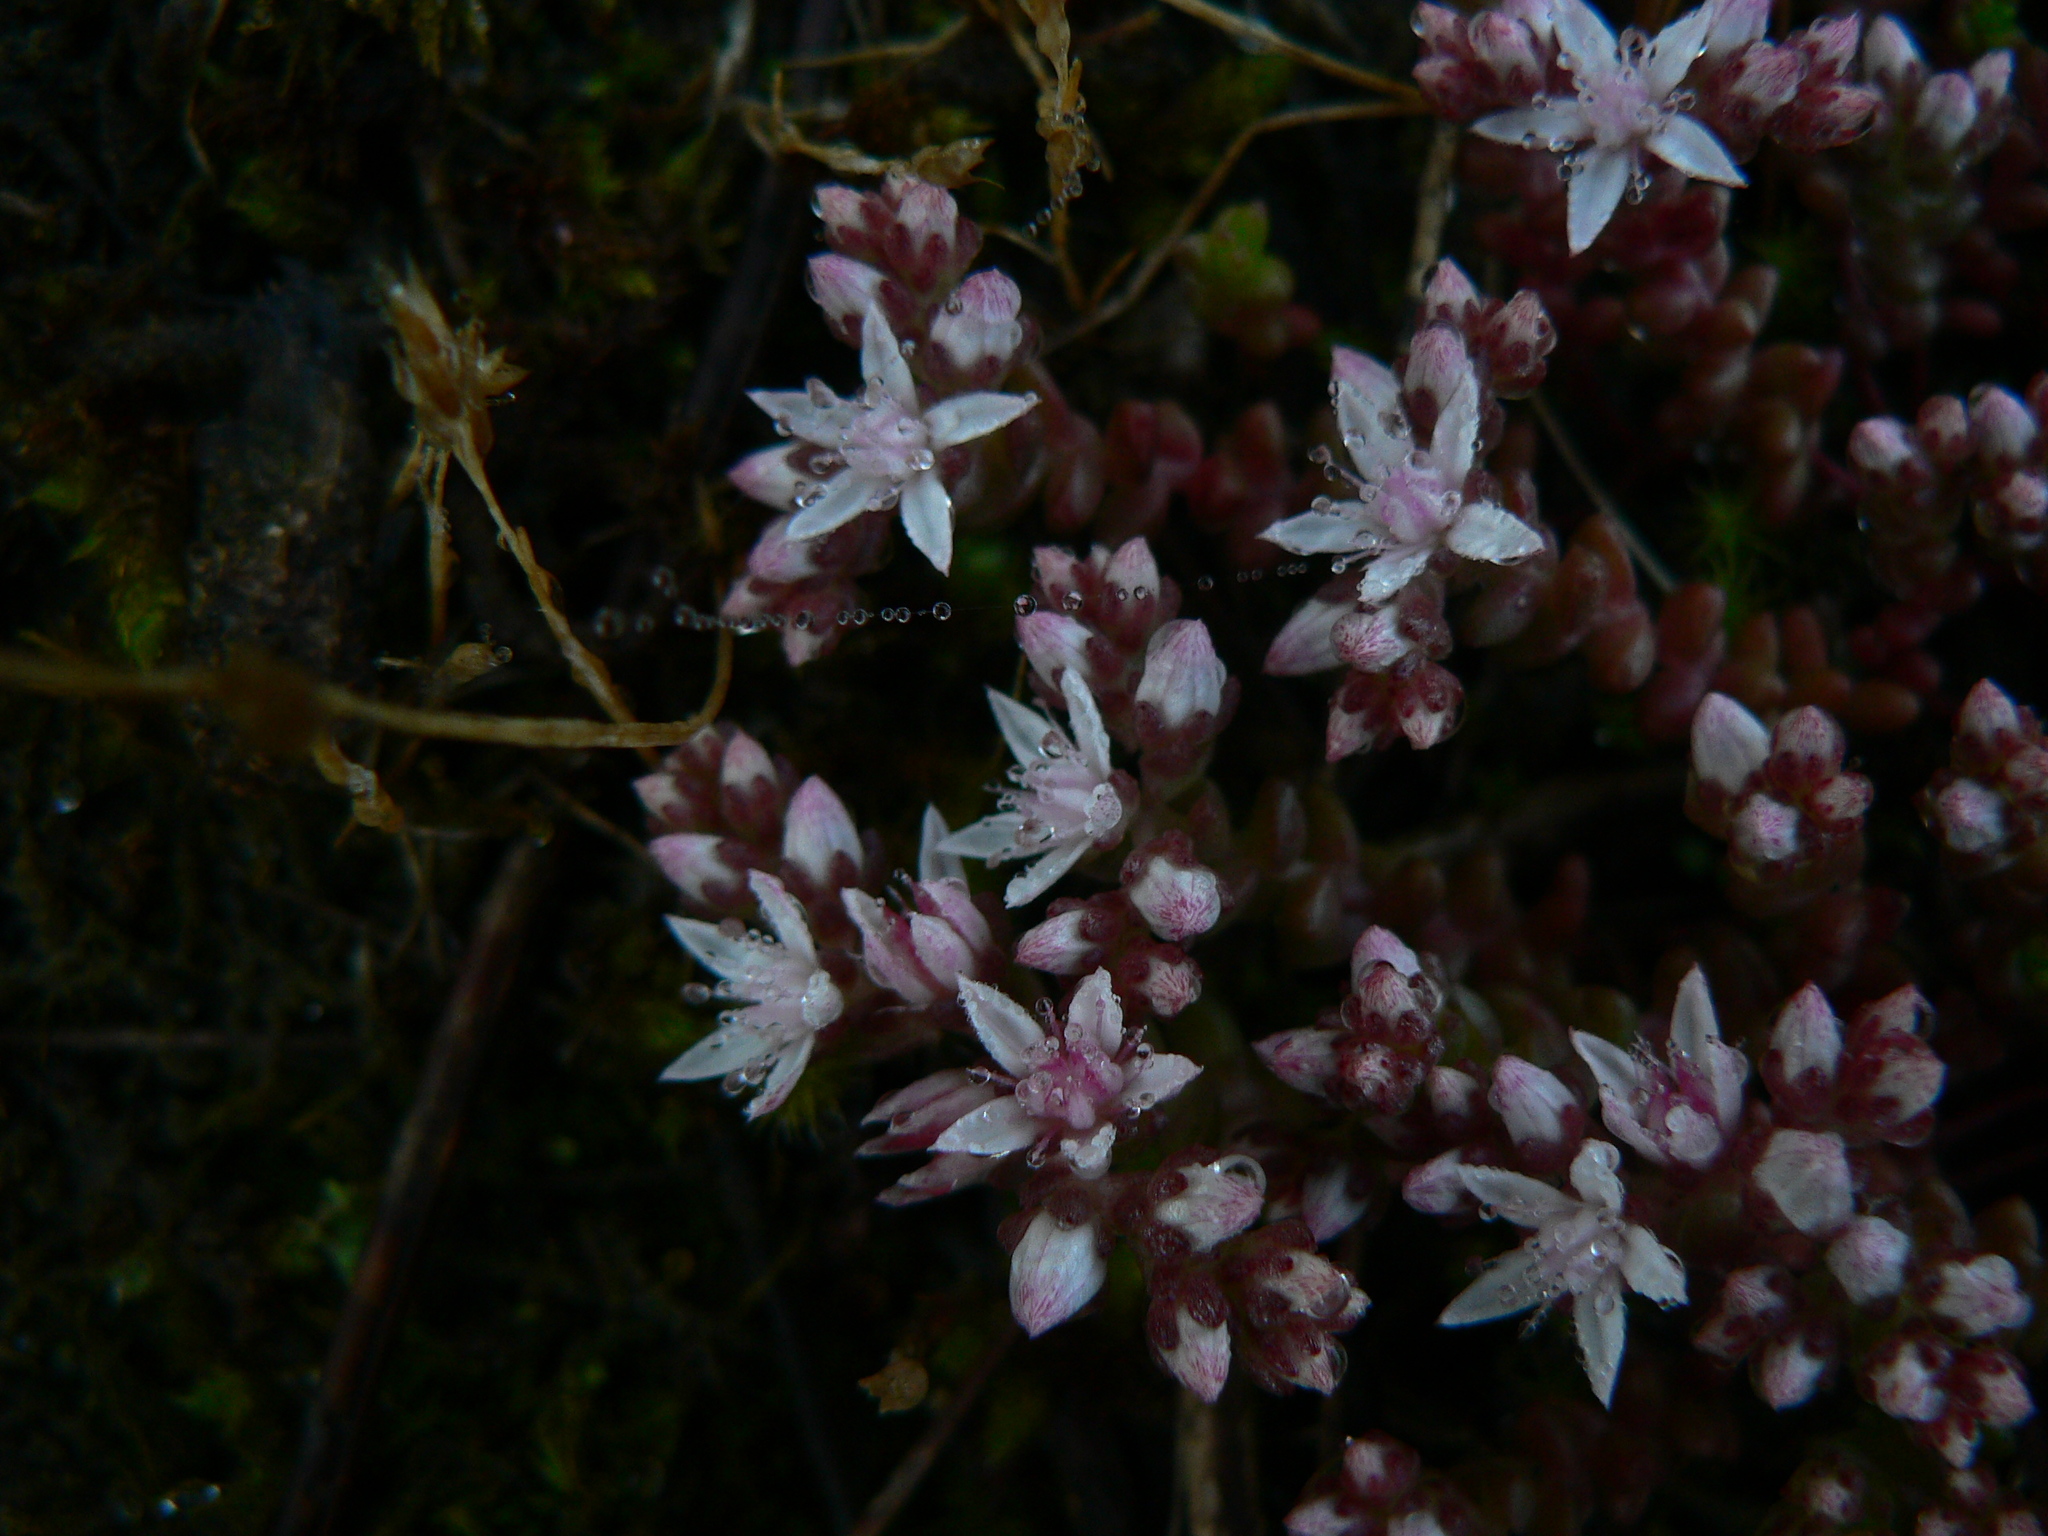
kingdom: Plantae
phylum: Tracheophyta
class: Magnoliopsida
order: Saxifragales
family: Crassulaceae
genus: Sedum
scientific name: Sedum anglicum
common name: English stonecrop
